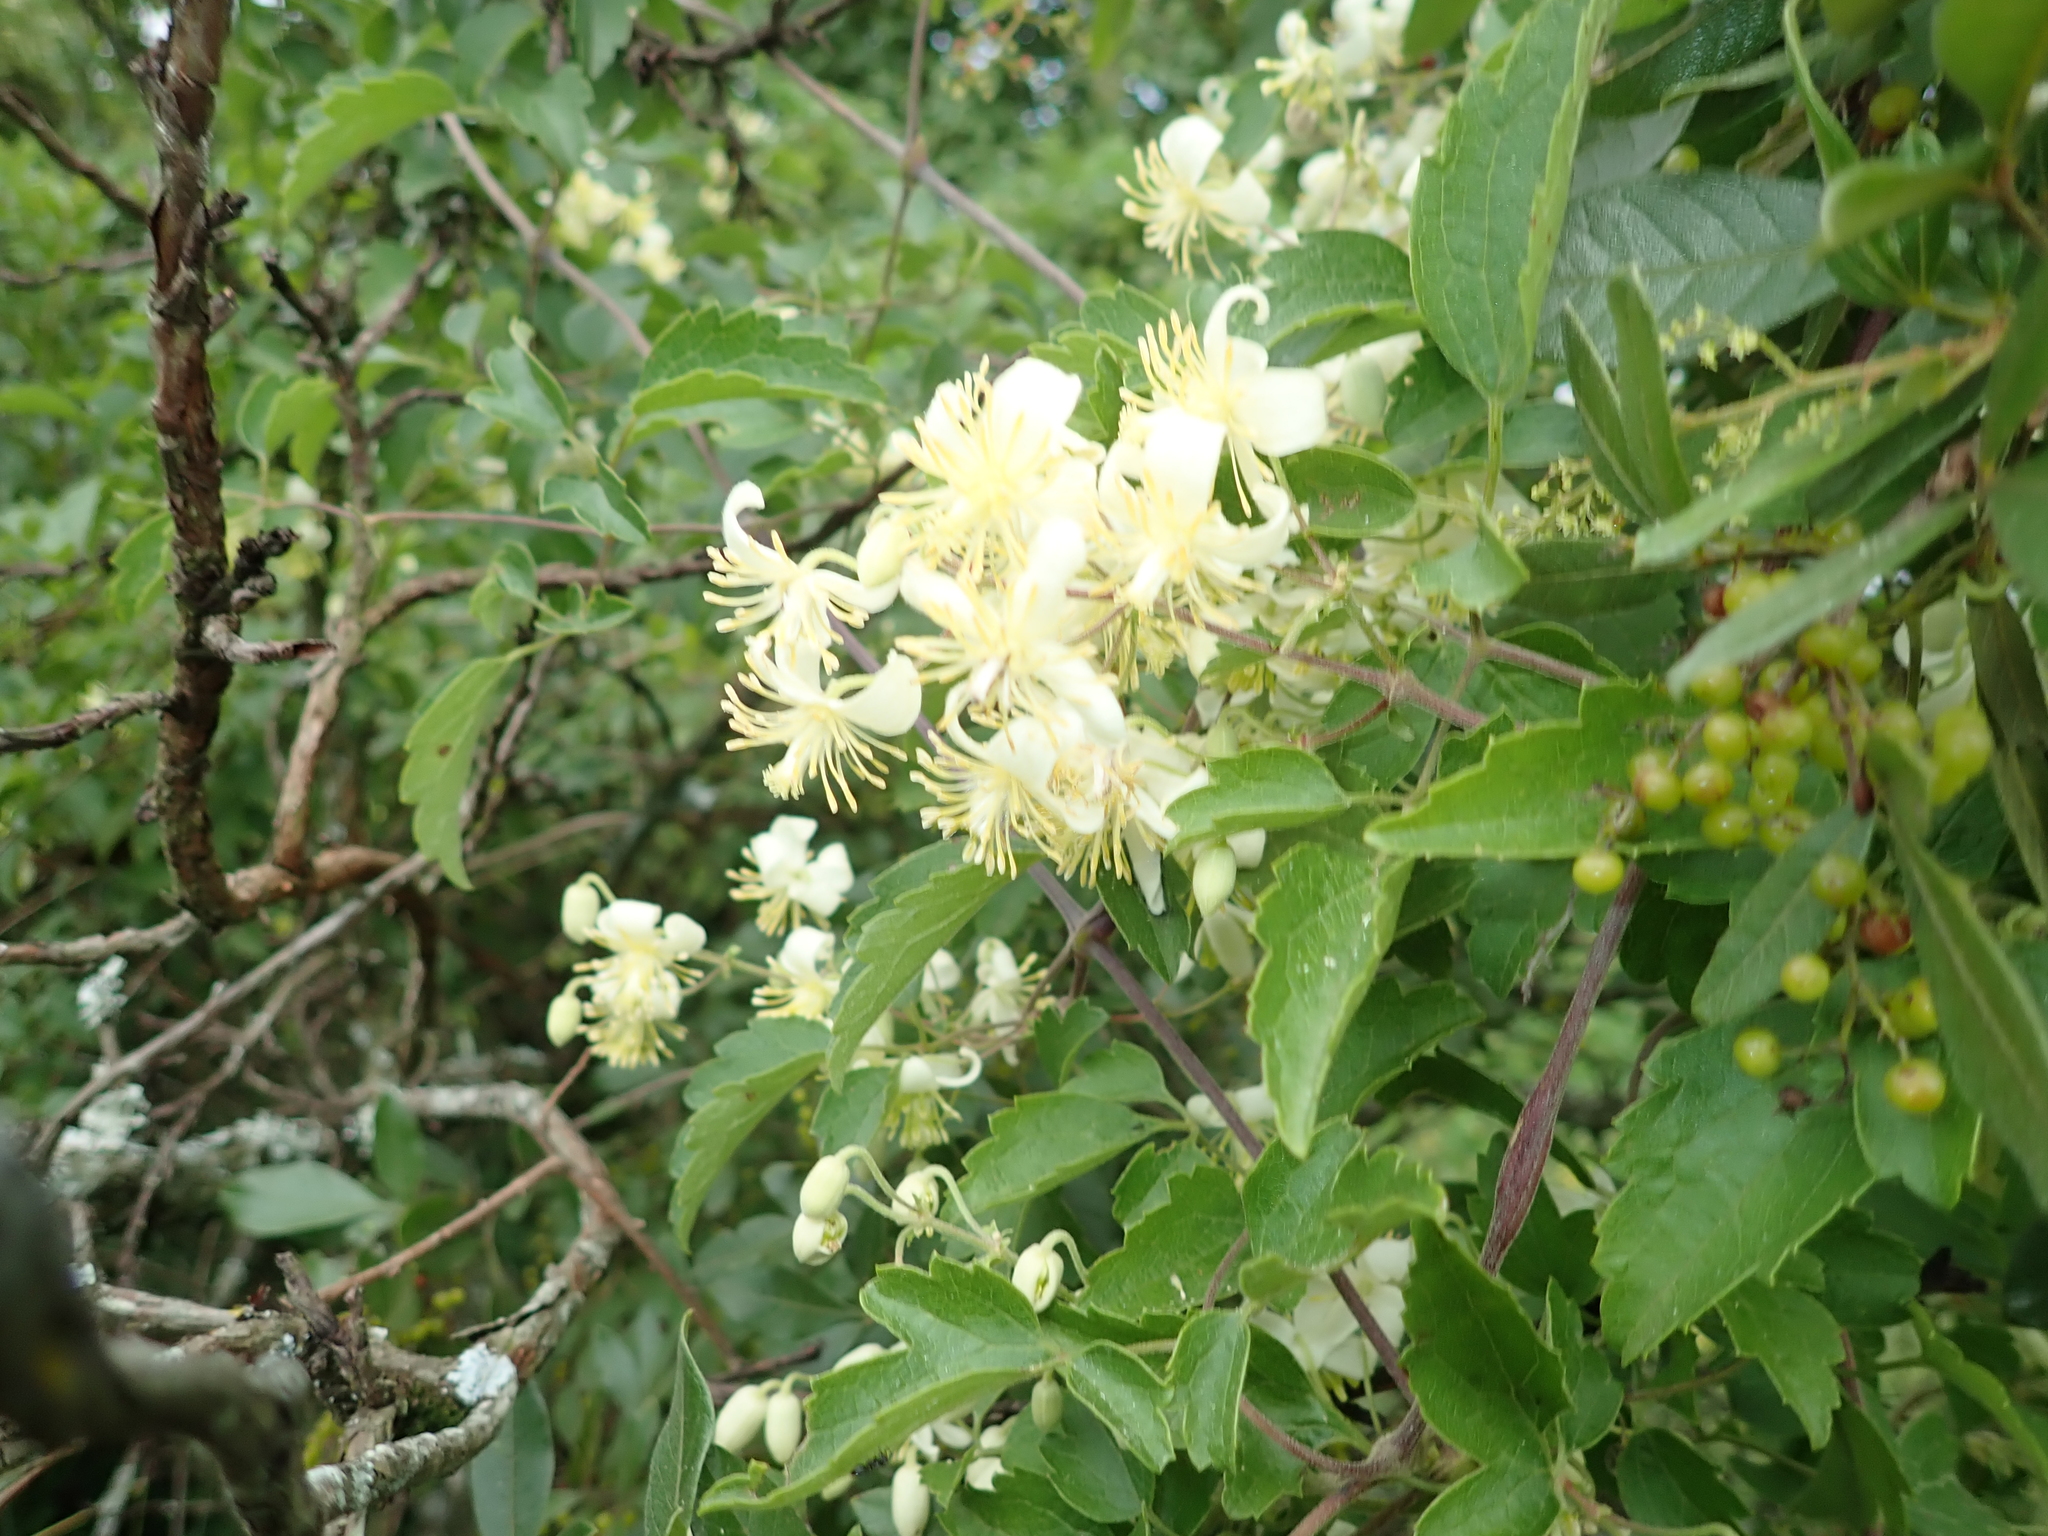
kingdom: Plantae
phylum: Tracheophyta
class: Magnoliopsida
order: Ranunculales
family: Ranunculaceae
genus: Clematis
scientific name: Clematis brachiata
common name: Traveler's-joy
